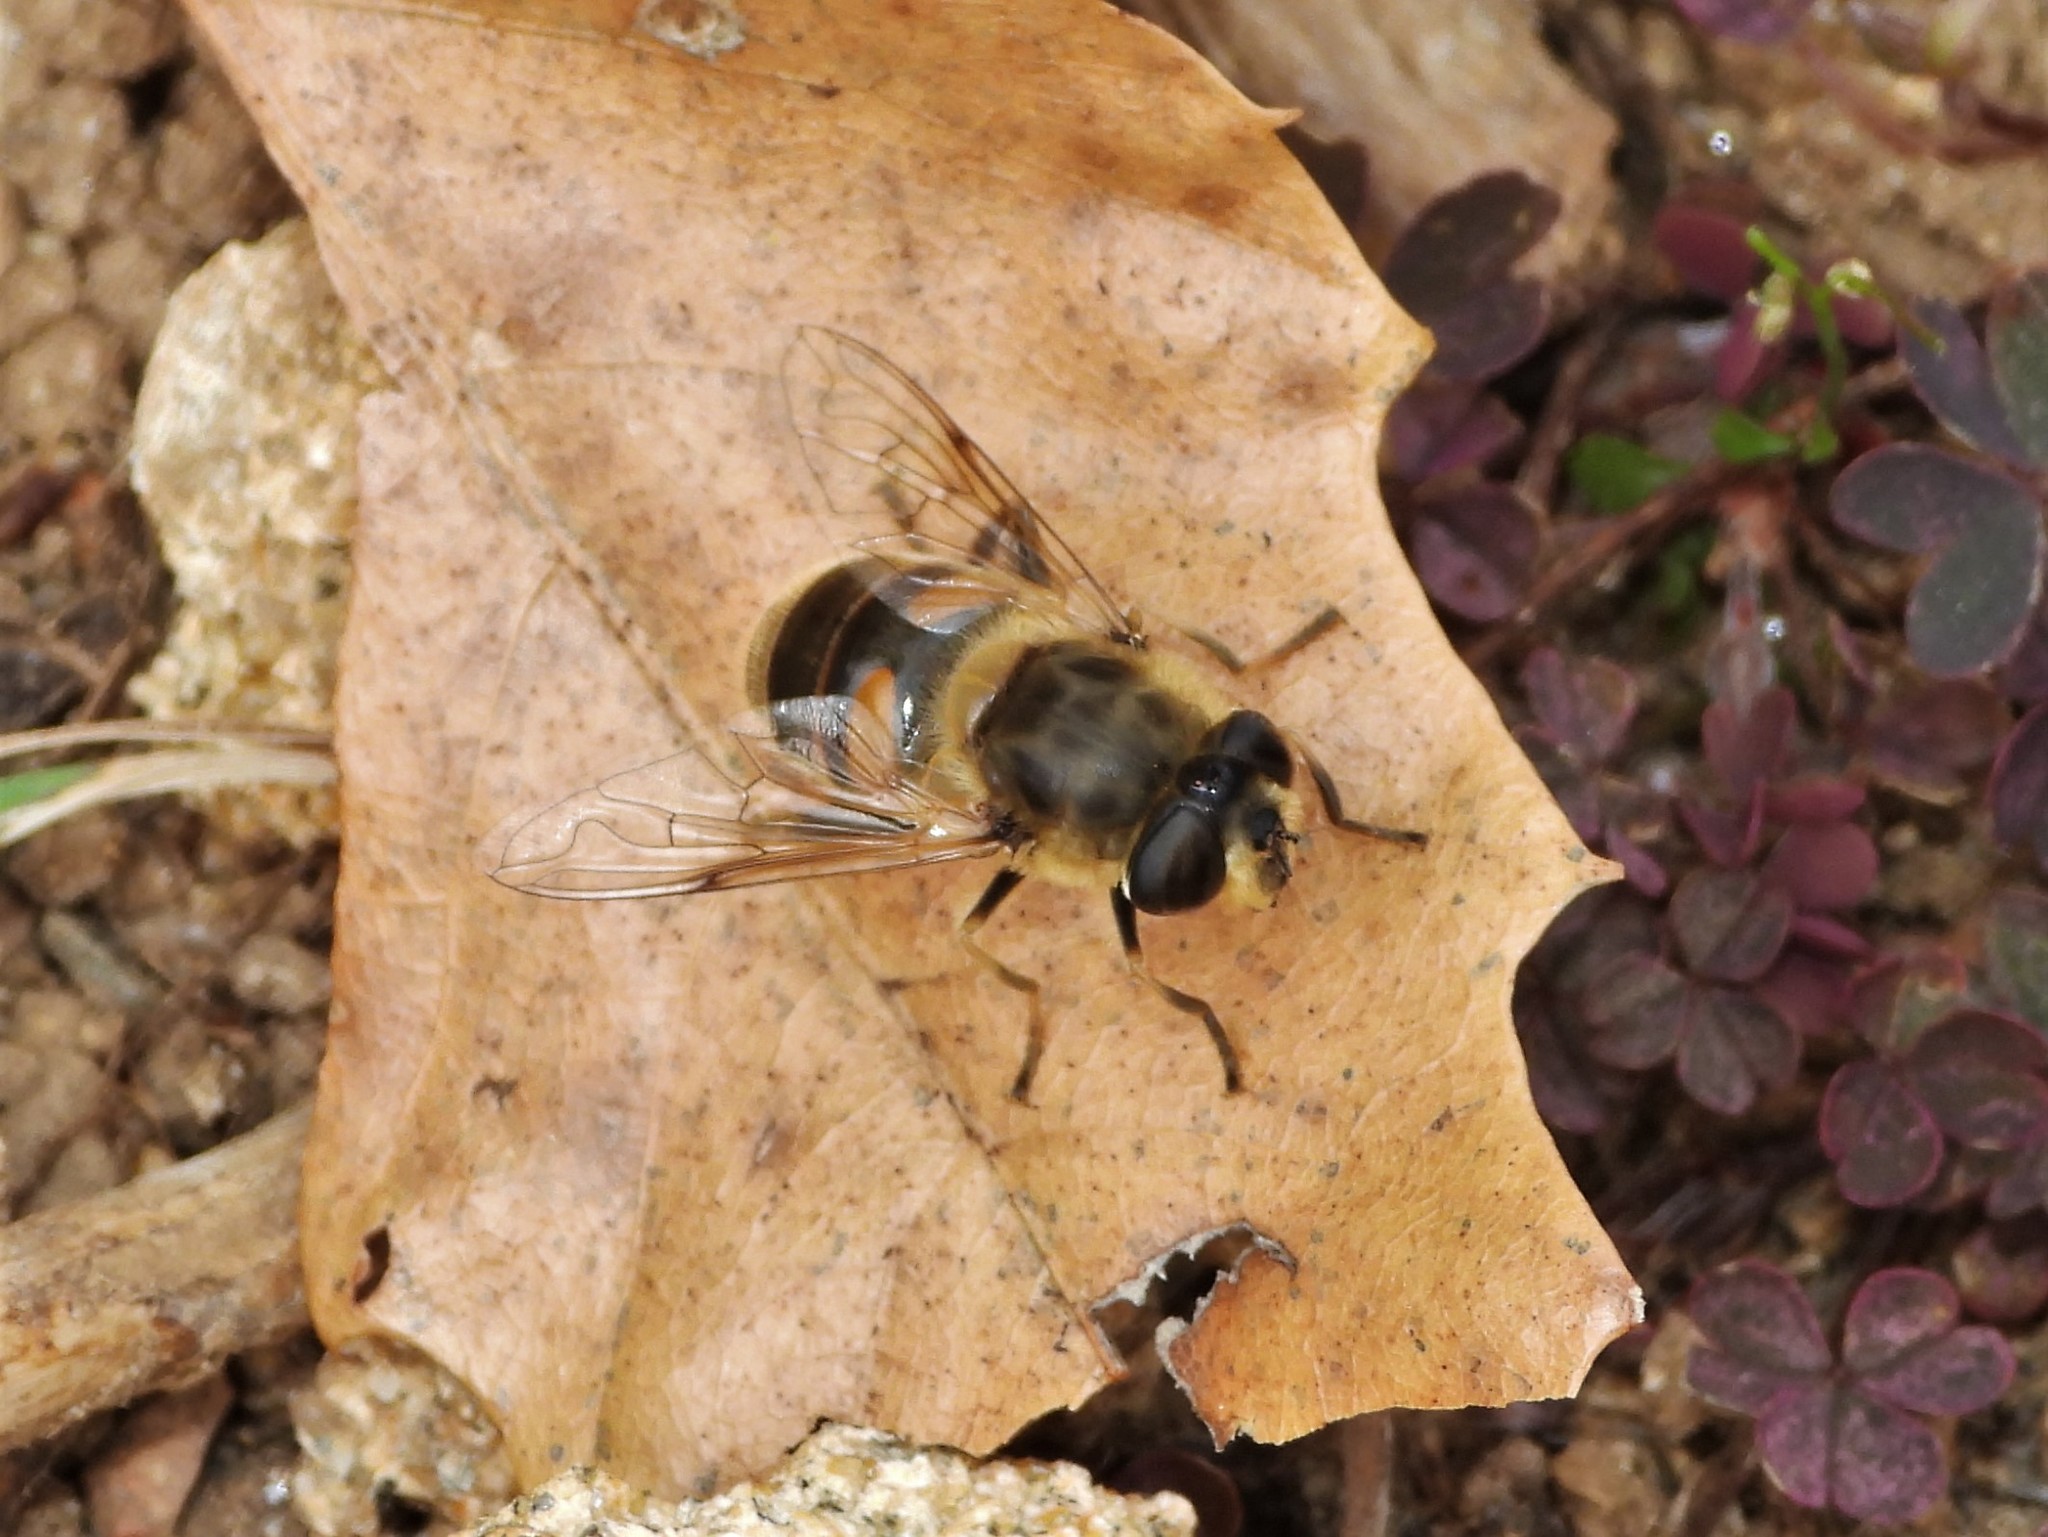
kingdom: Animalia
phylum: Arthropoda
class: Insecta
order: Diptera
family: Syrphidae
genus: Eristalis
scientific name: Eristalis tenax
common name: Drone fly
